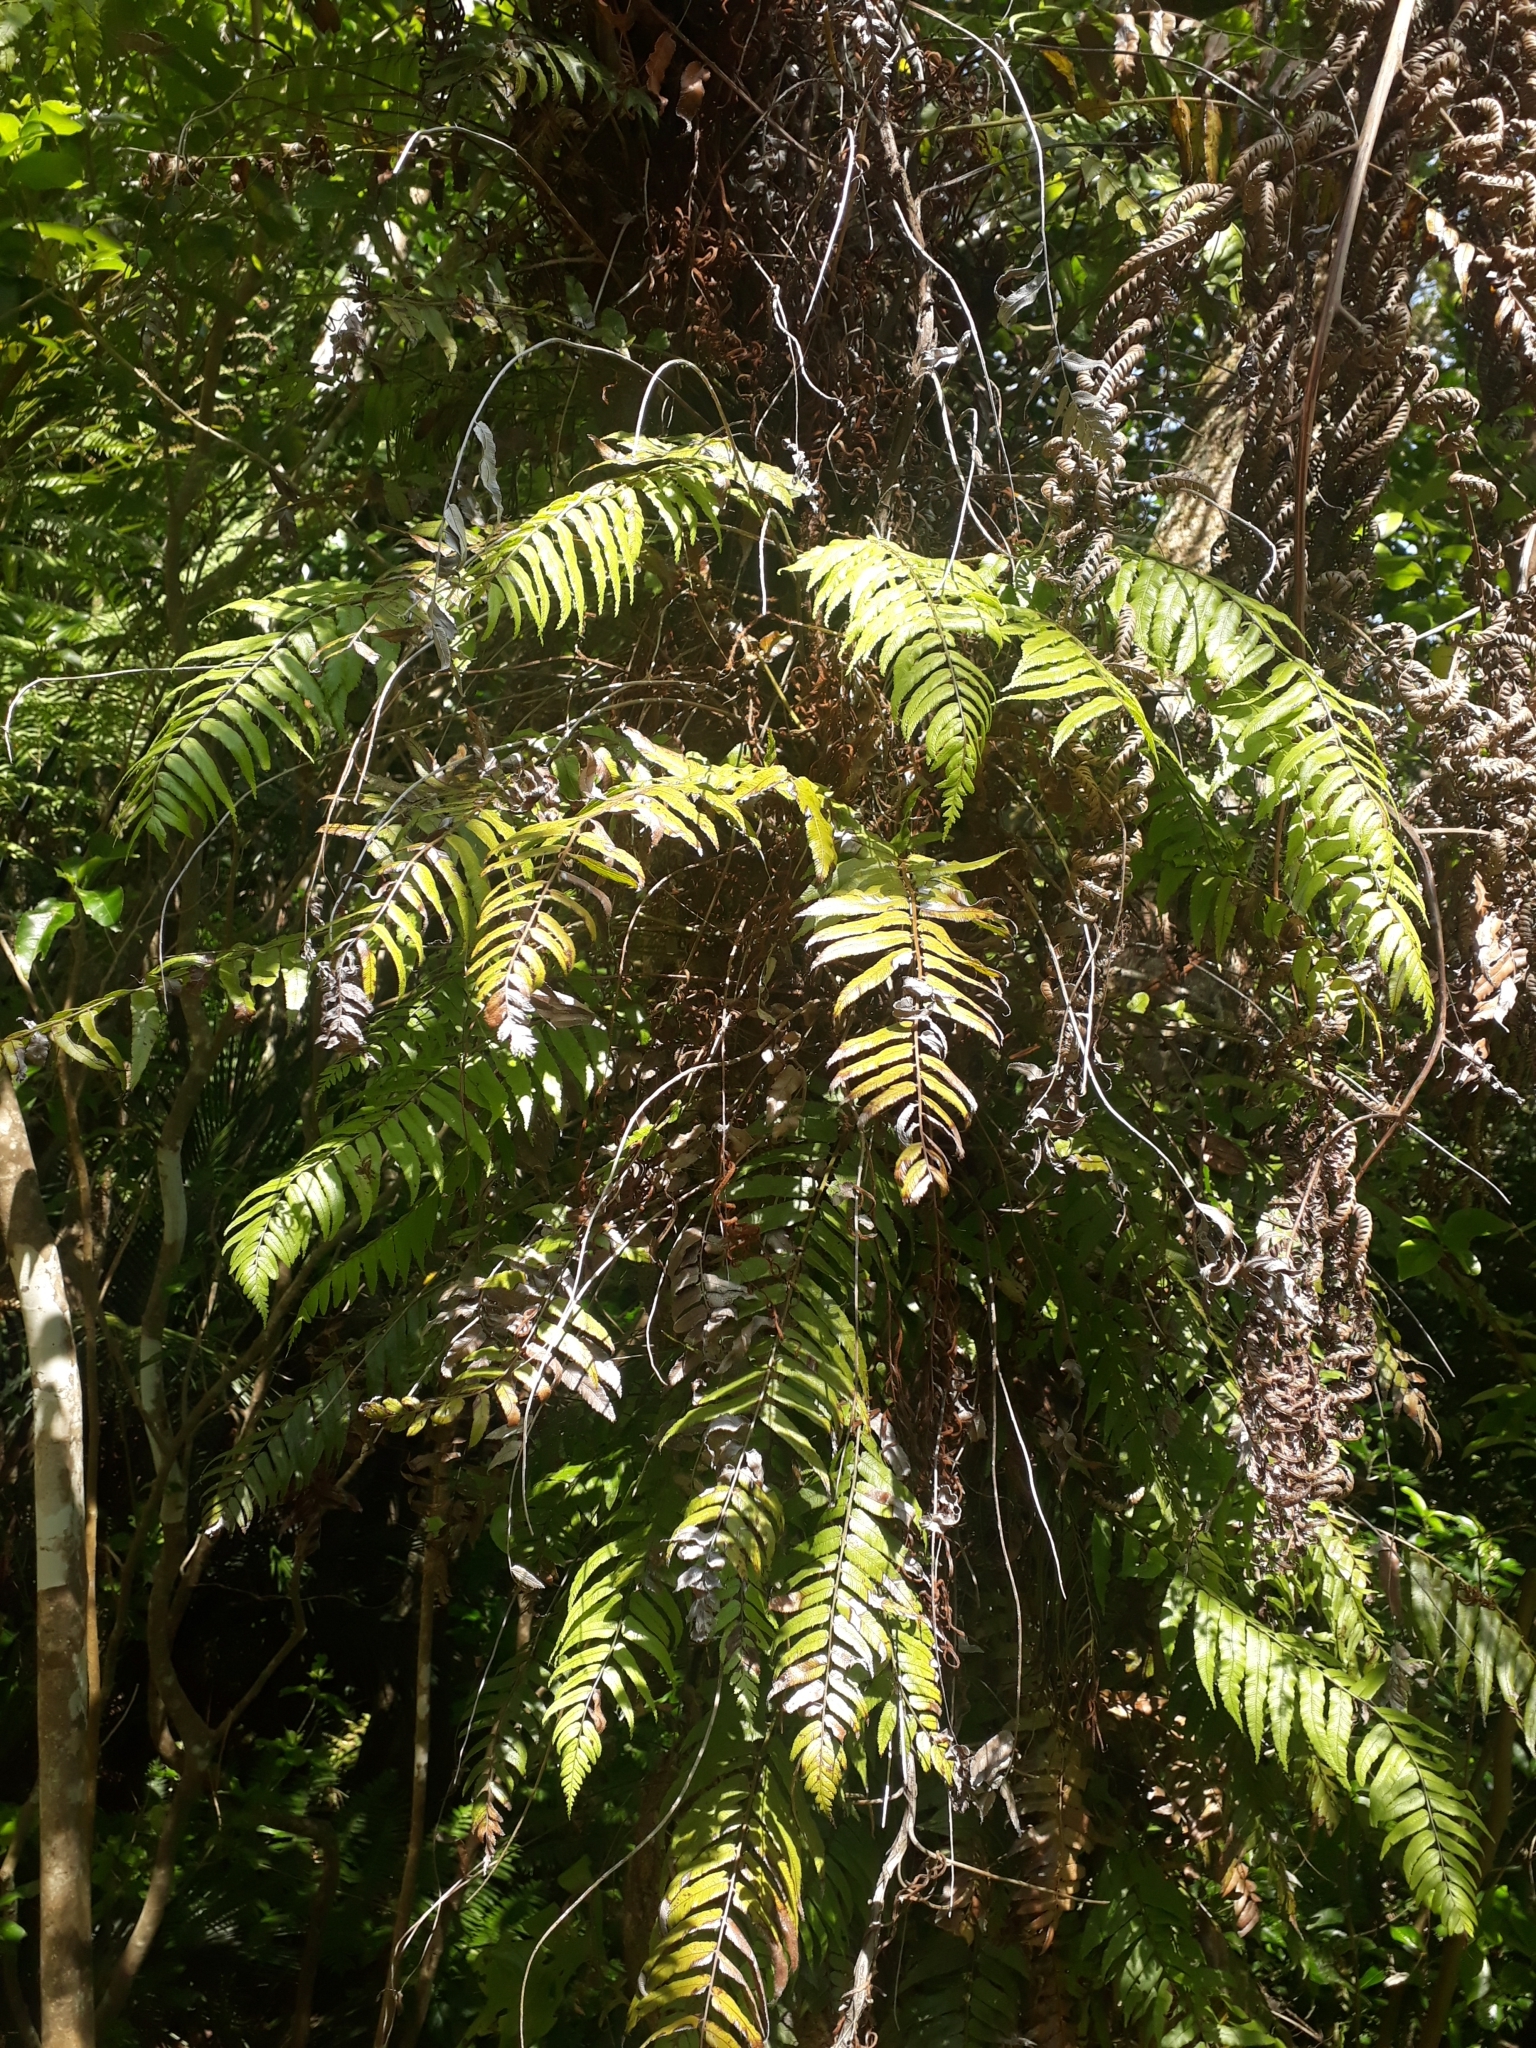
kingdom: Plantae
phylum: Tracheophyta
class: Polypodiopsida
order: Polypodiales
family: Blechnaceae
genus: Icarus
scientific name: Icarus filiformis
